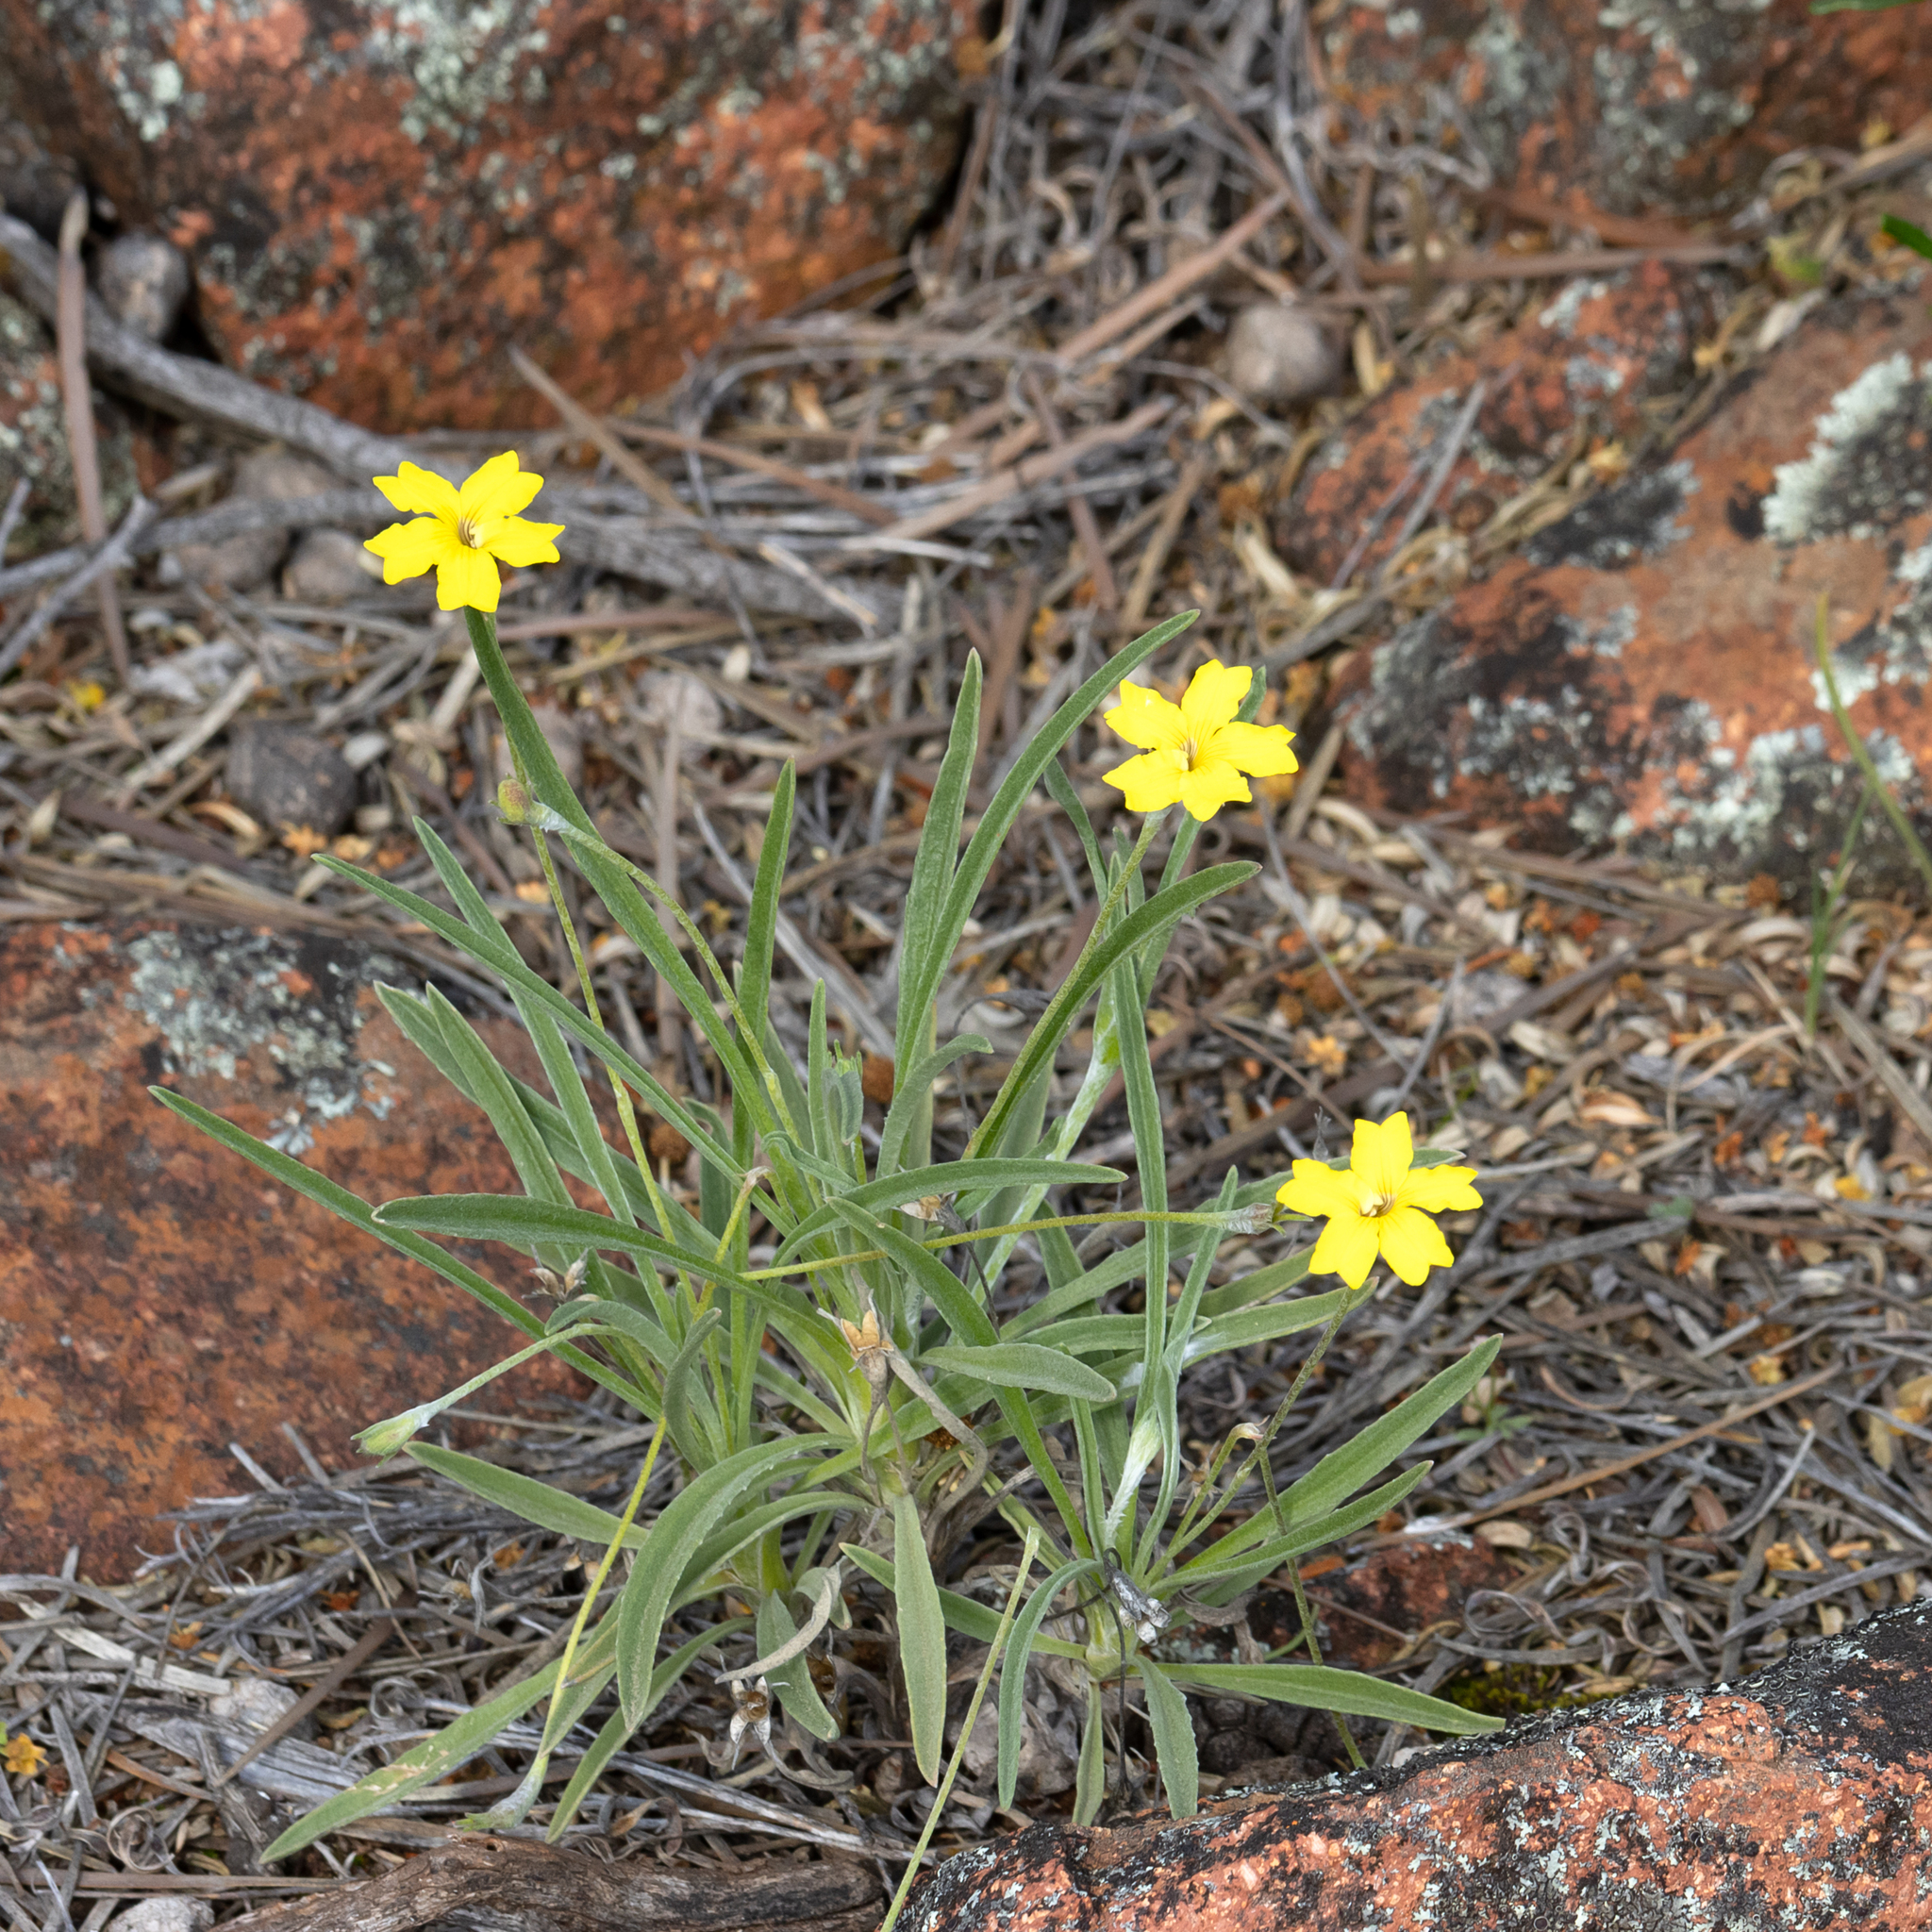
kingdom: Plantae
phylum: Tracheophyta
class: Magnoliopsida
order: Asterales
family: Goodeniaceae
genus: Goodenia
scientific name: Goodenia willisiana
